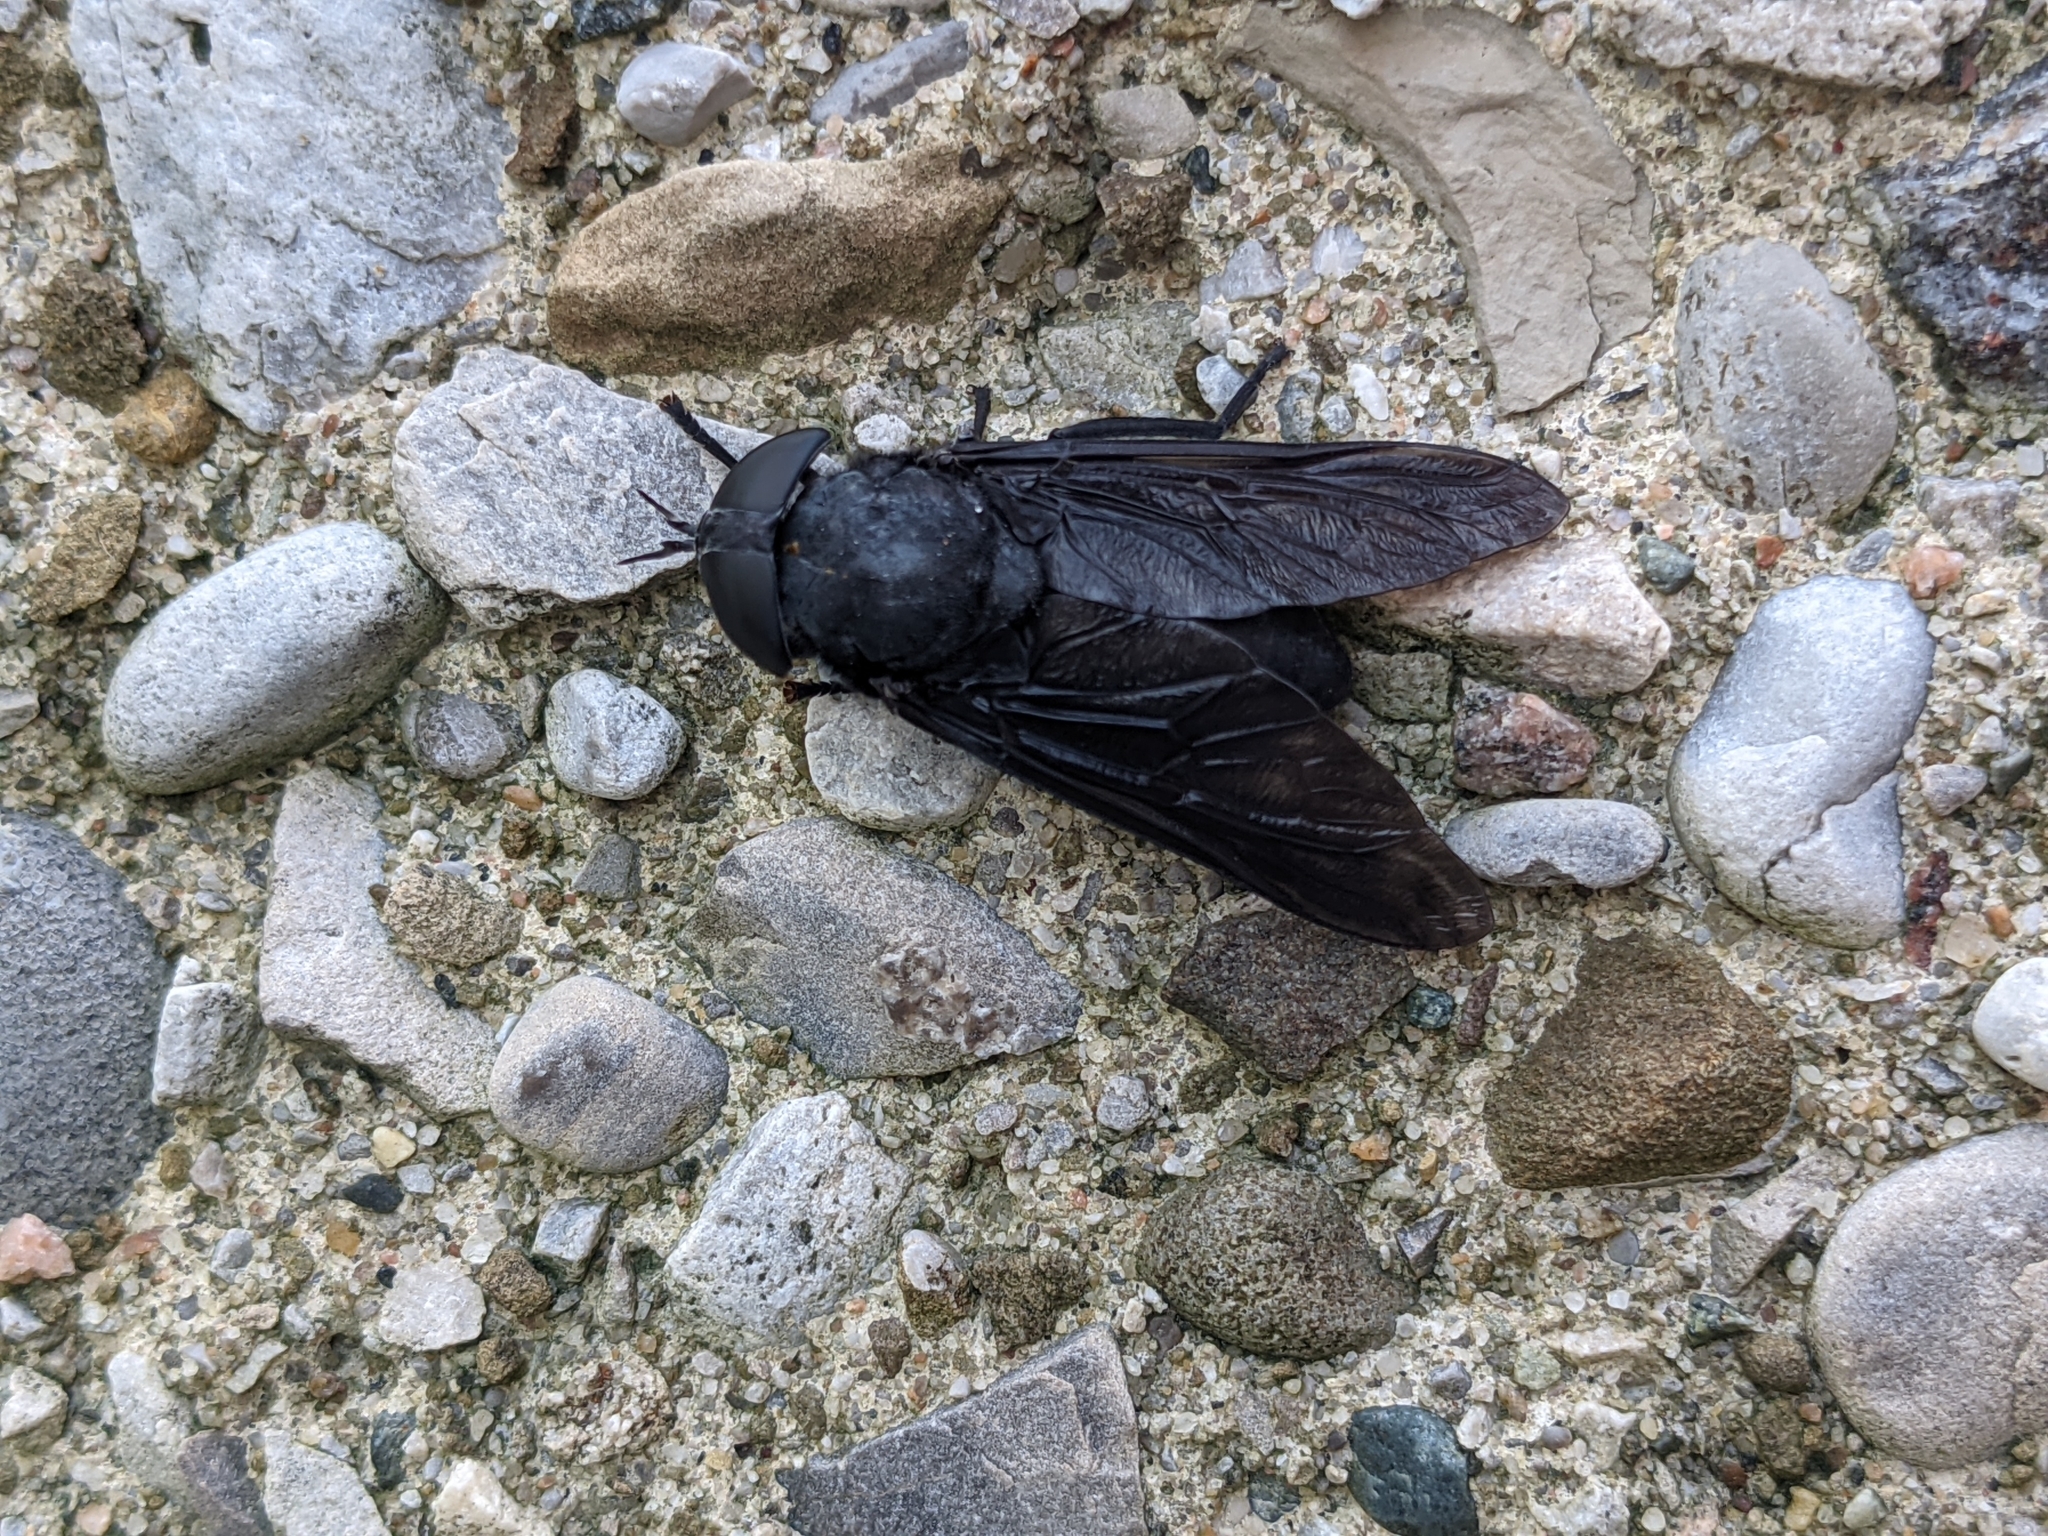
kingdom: Animalia
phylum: Arthropoda
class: Insecta
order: Diptera
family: Tabanidae
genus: Tabanus
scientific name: Tabanus atratus
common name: Black horse fly
